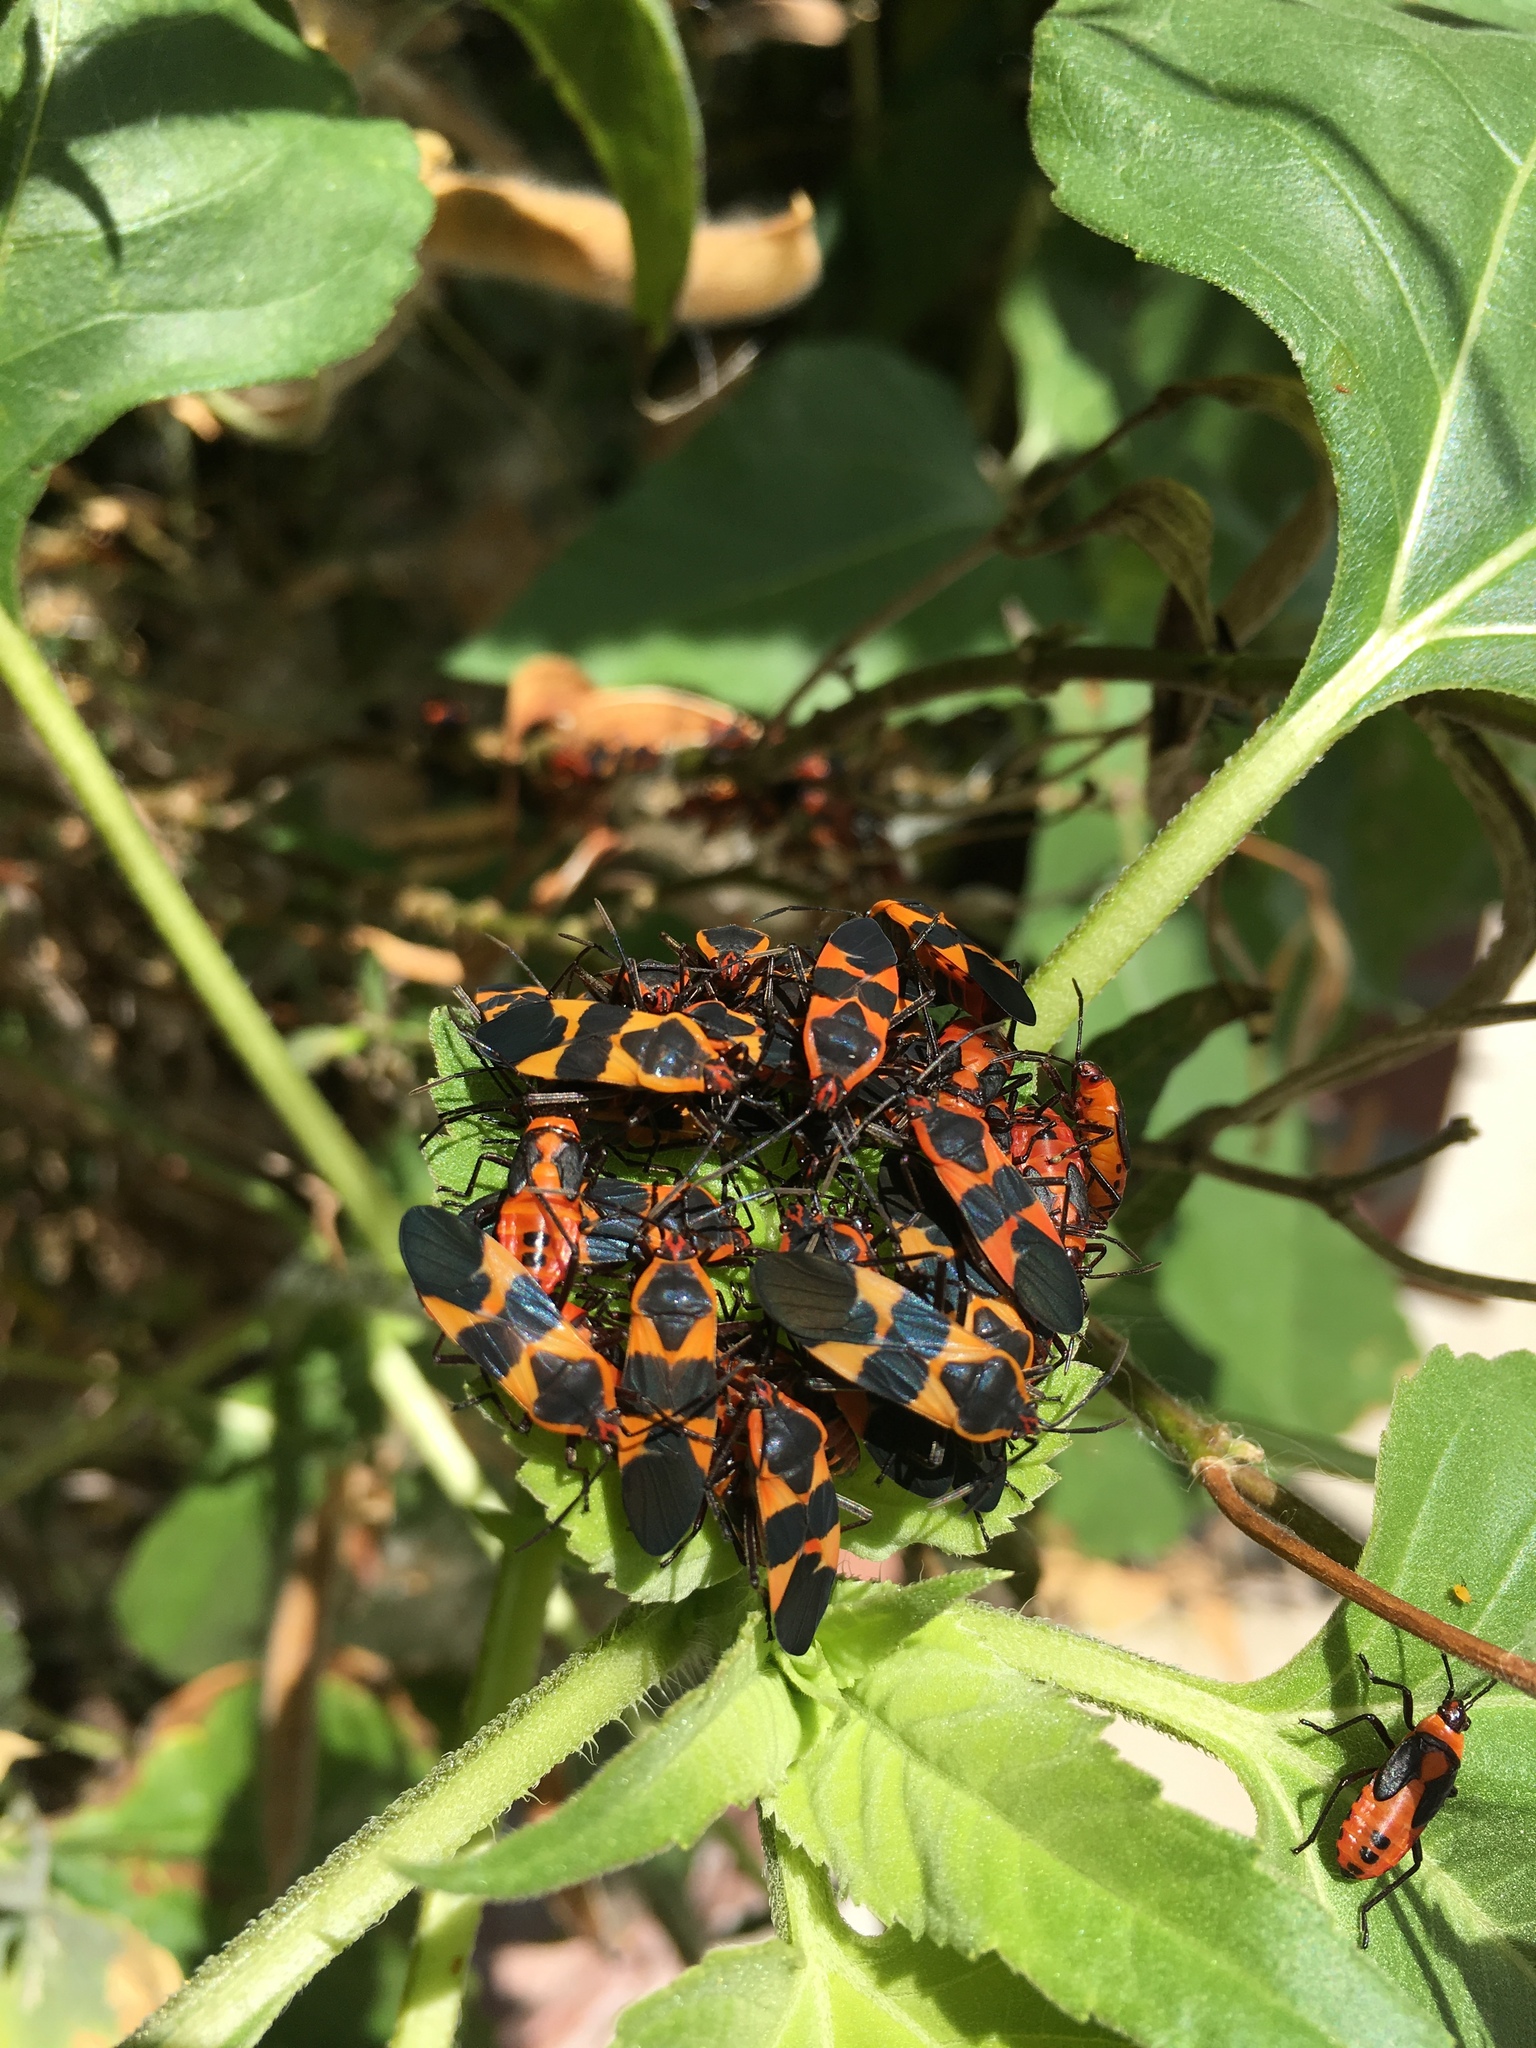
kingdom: Animalia
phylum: Arthropoda
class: Insecta
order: Hemiptera
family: Lygaeidae
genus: Oncopeltus
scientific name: Oncopeltus fasciatus
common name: Large milkweed bug
